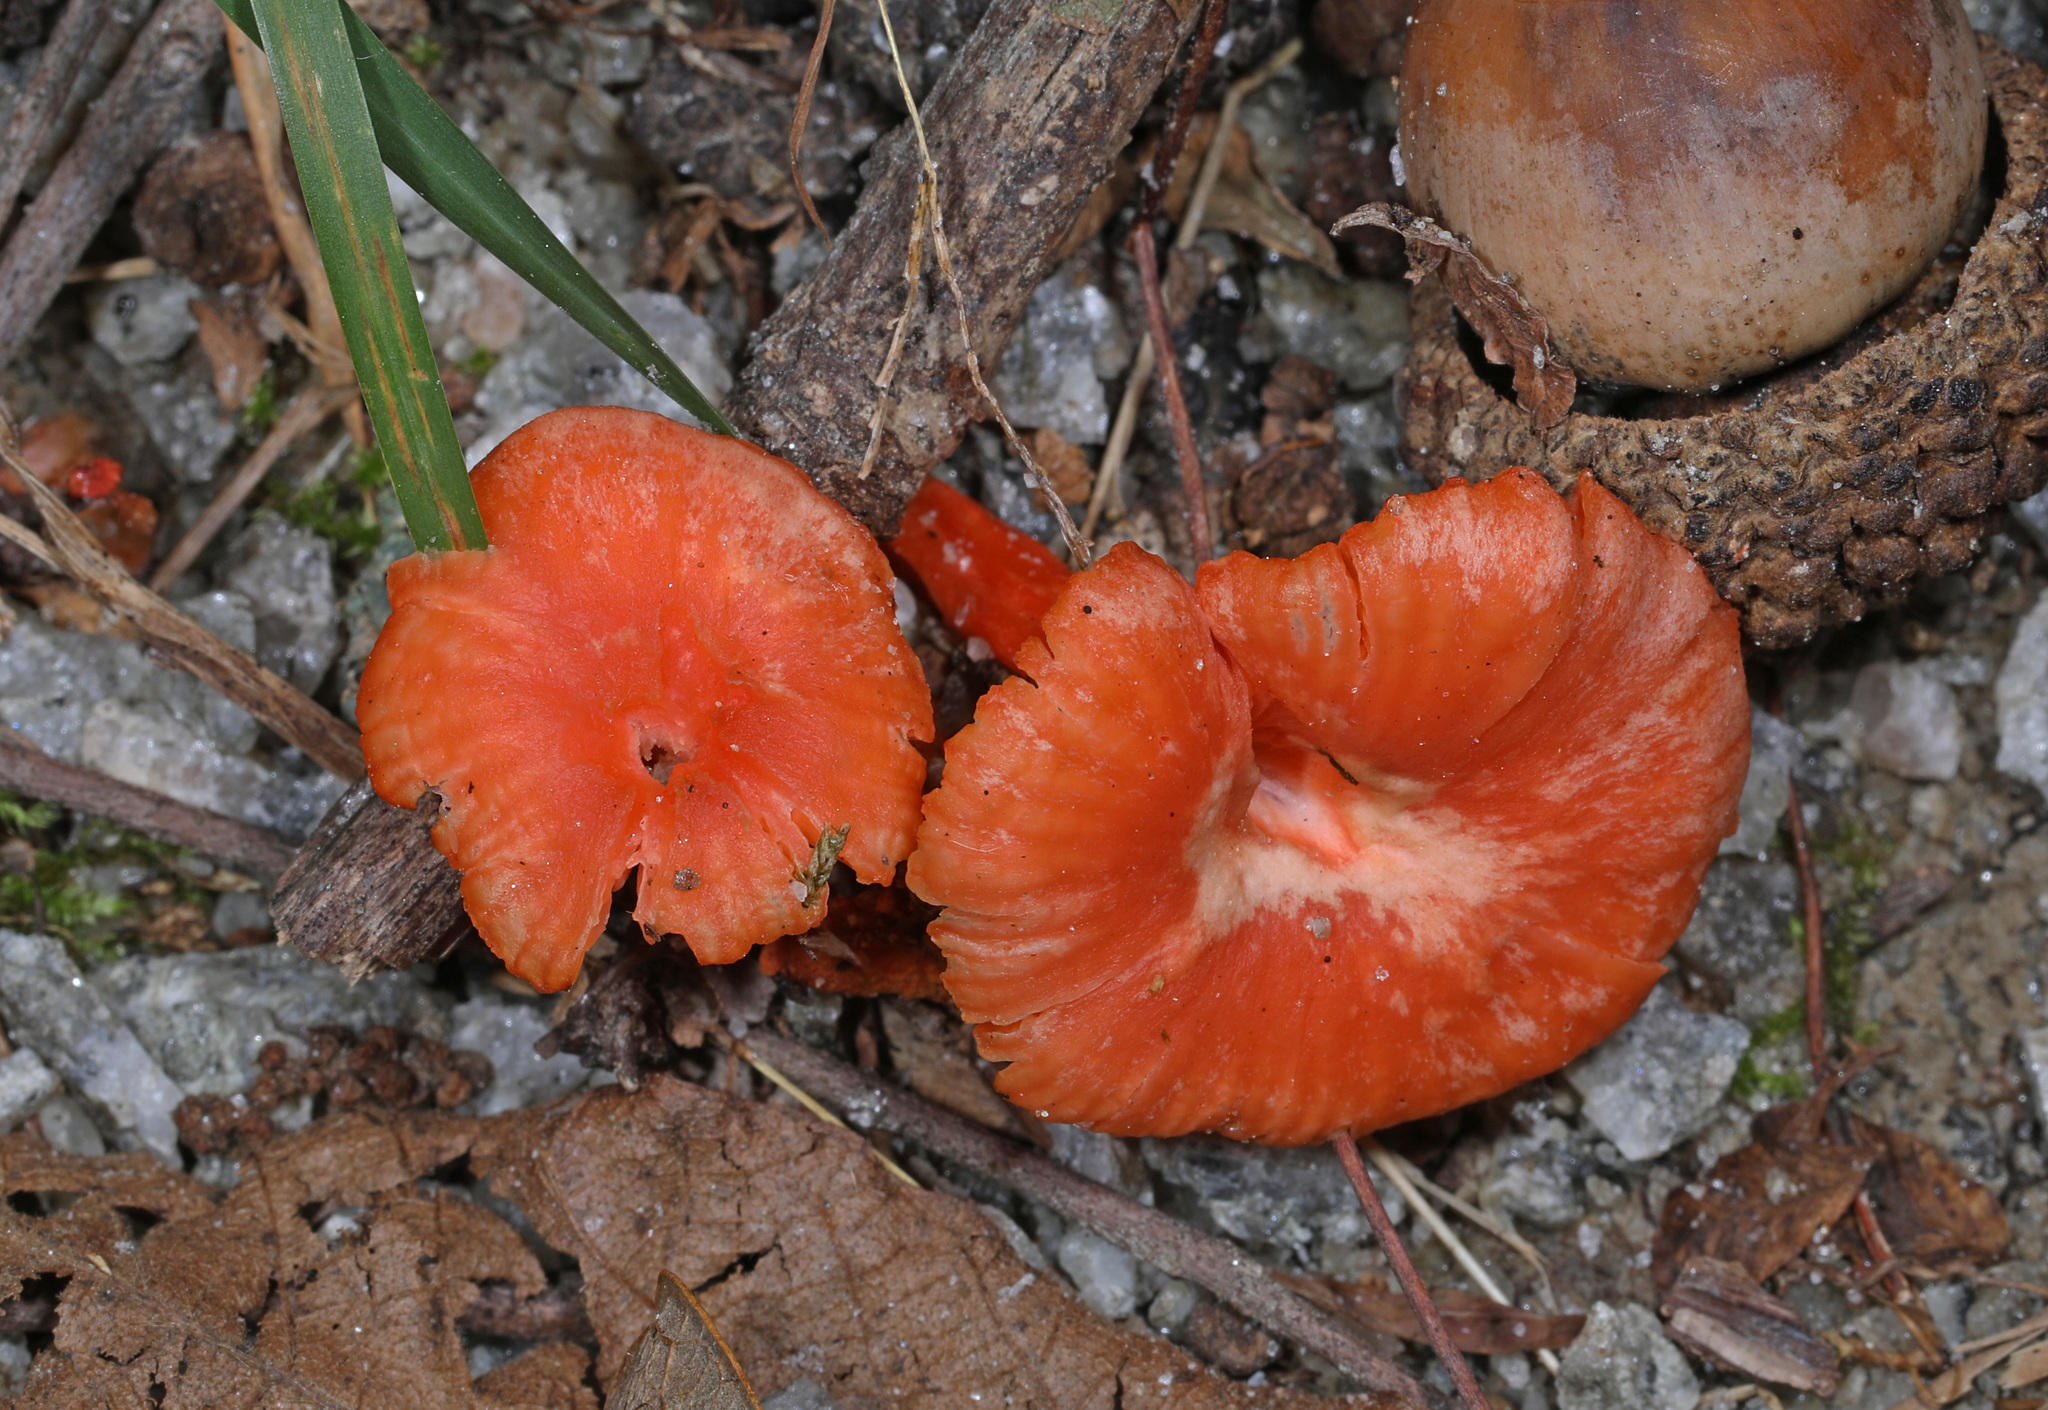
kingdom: Fungi
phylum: Basidiomycota
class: Agaricomycetes
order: Cantharellales
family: Hydnaceae
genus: Cantharellus
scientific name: Cantharellus cinnabarinus
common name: Cinnabar chanterelle
